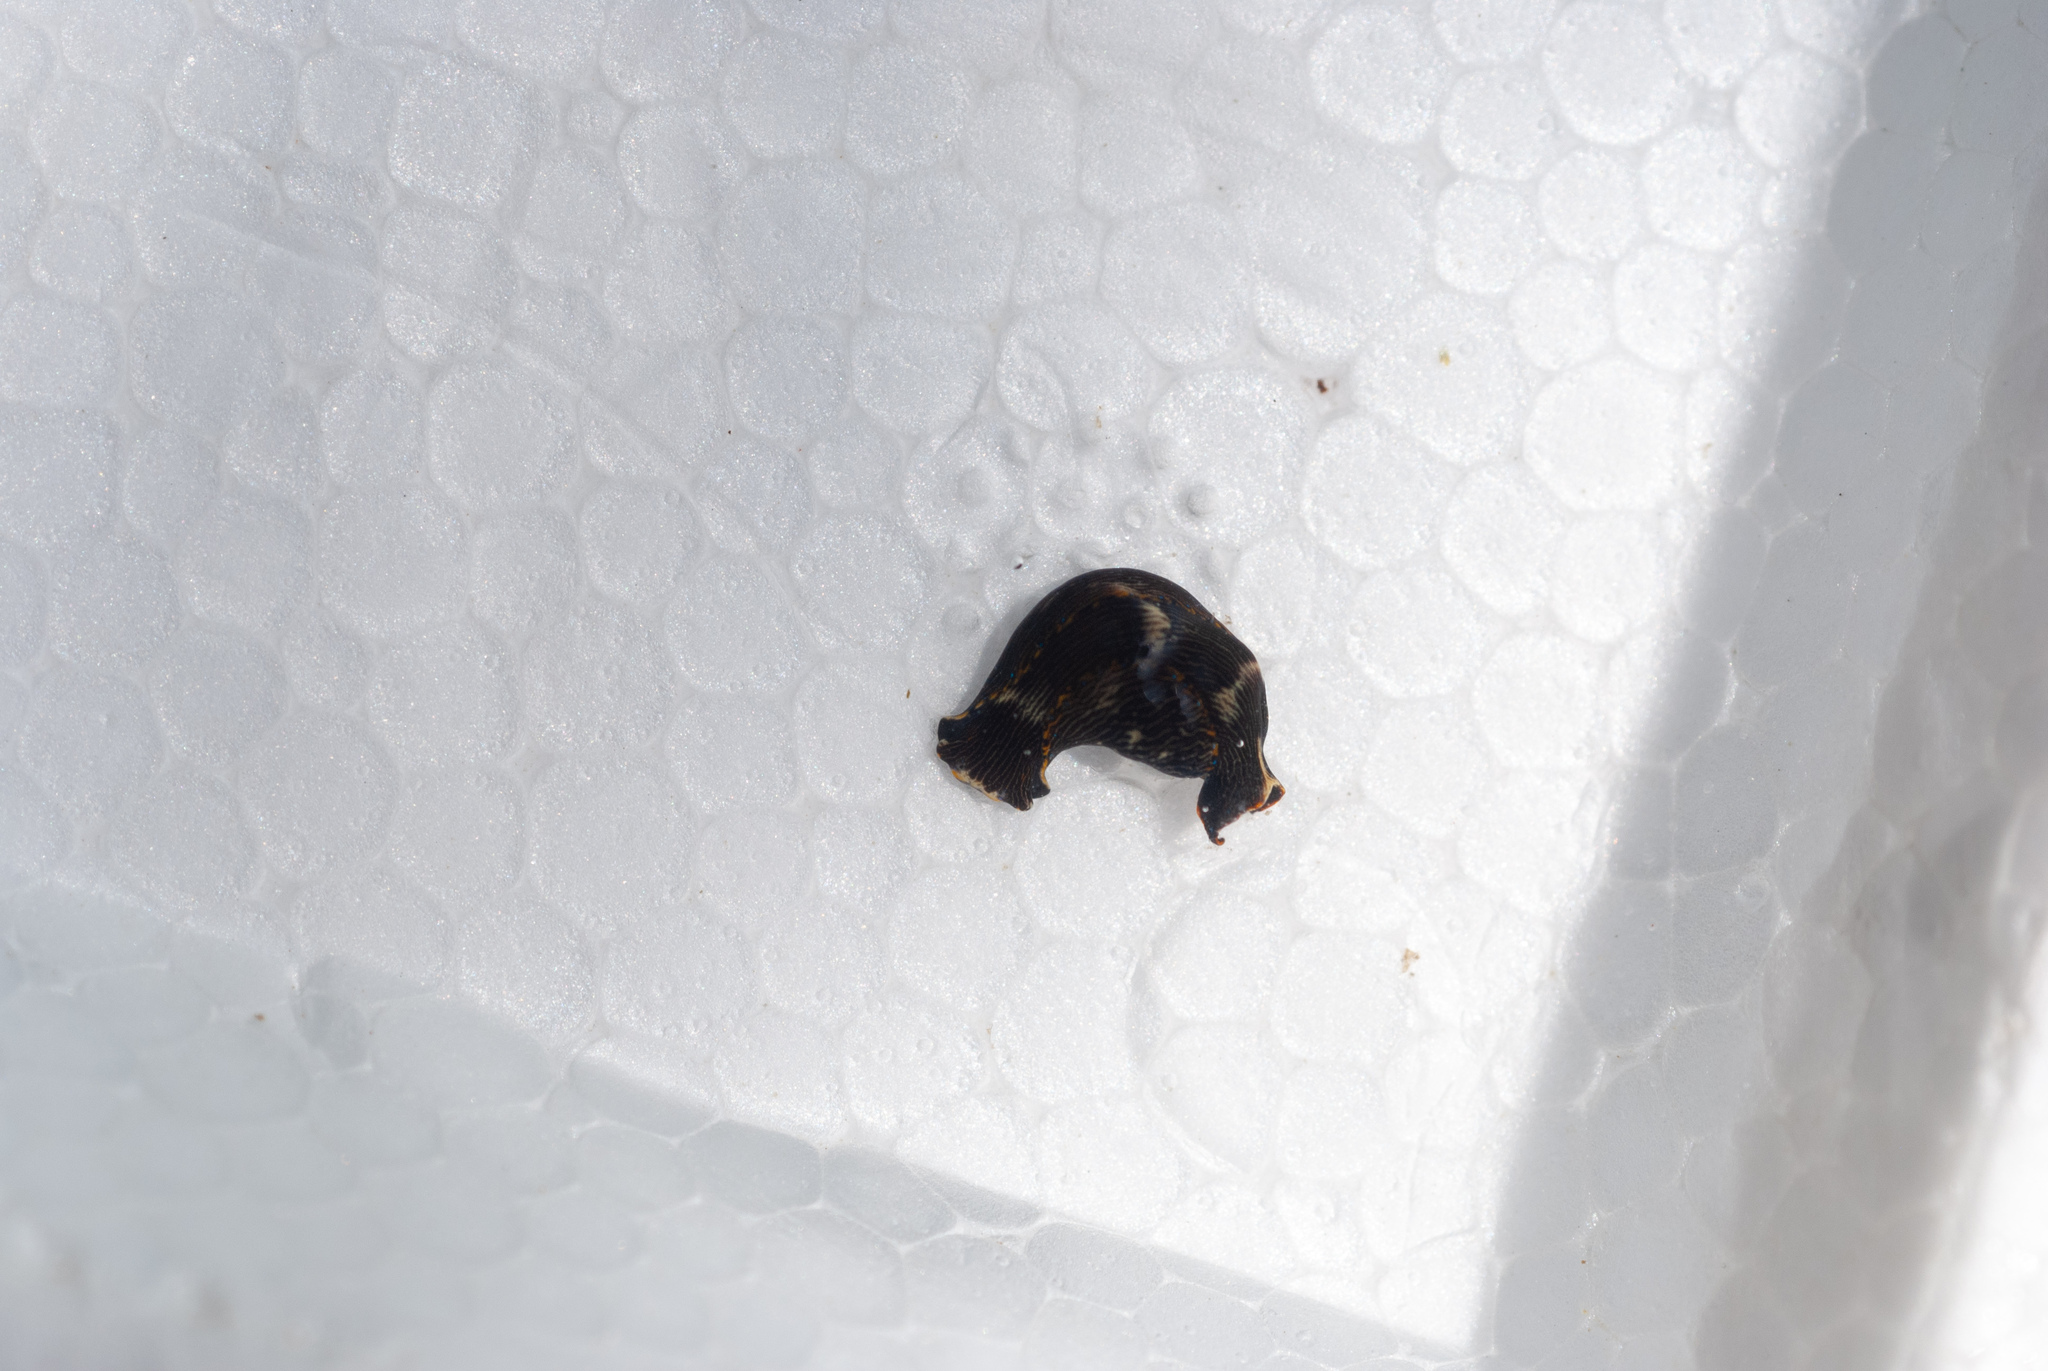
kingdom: Animalia
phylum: Mollusca
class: Gastropoda
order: Cephalaspidea
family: Aglajidae
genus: Navanax
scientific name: Navanax gemmatus
